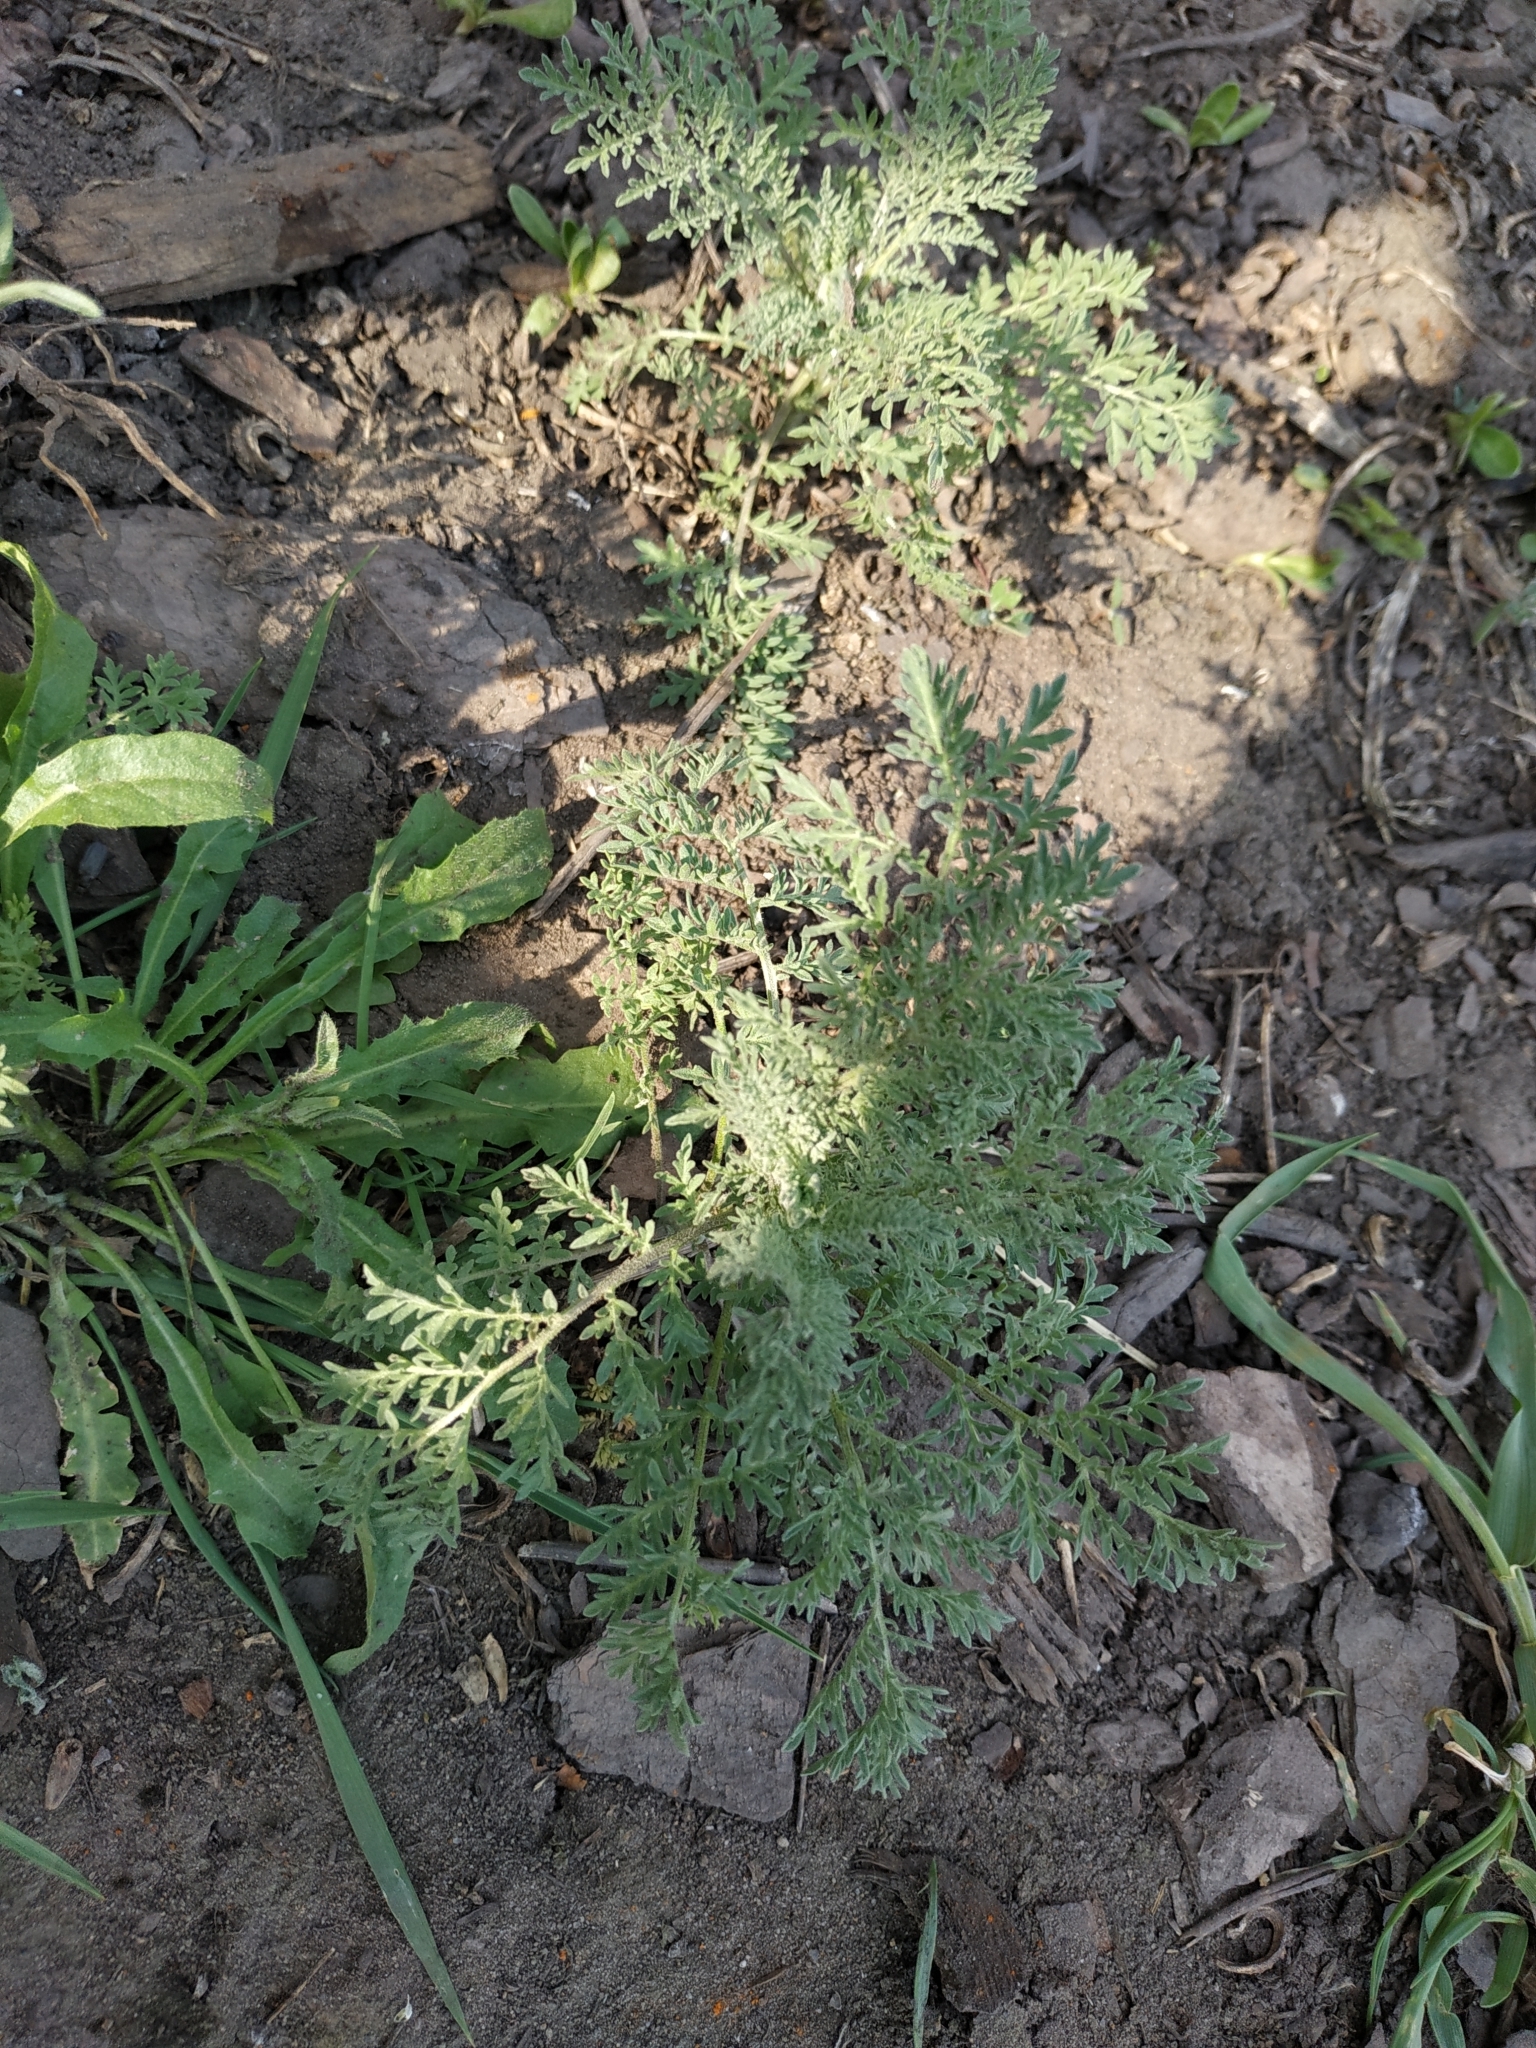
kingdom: Plantae
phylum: Tracheophyta
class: Magnoliopsida
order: Brassicales
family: Brassicaceae
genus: Descurainia
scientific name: Descurainia sophia
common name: Flixweed
